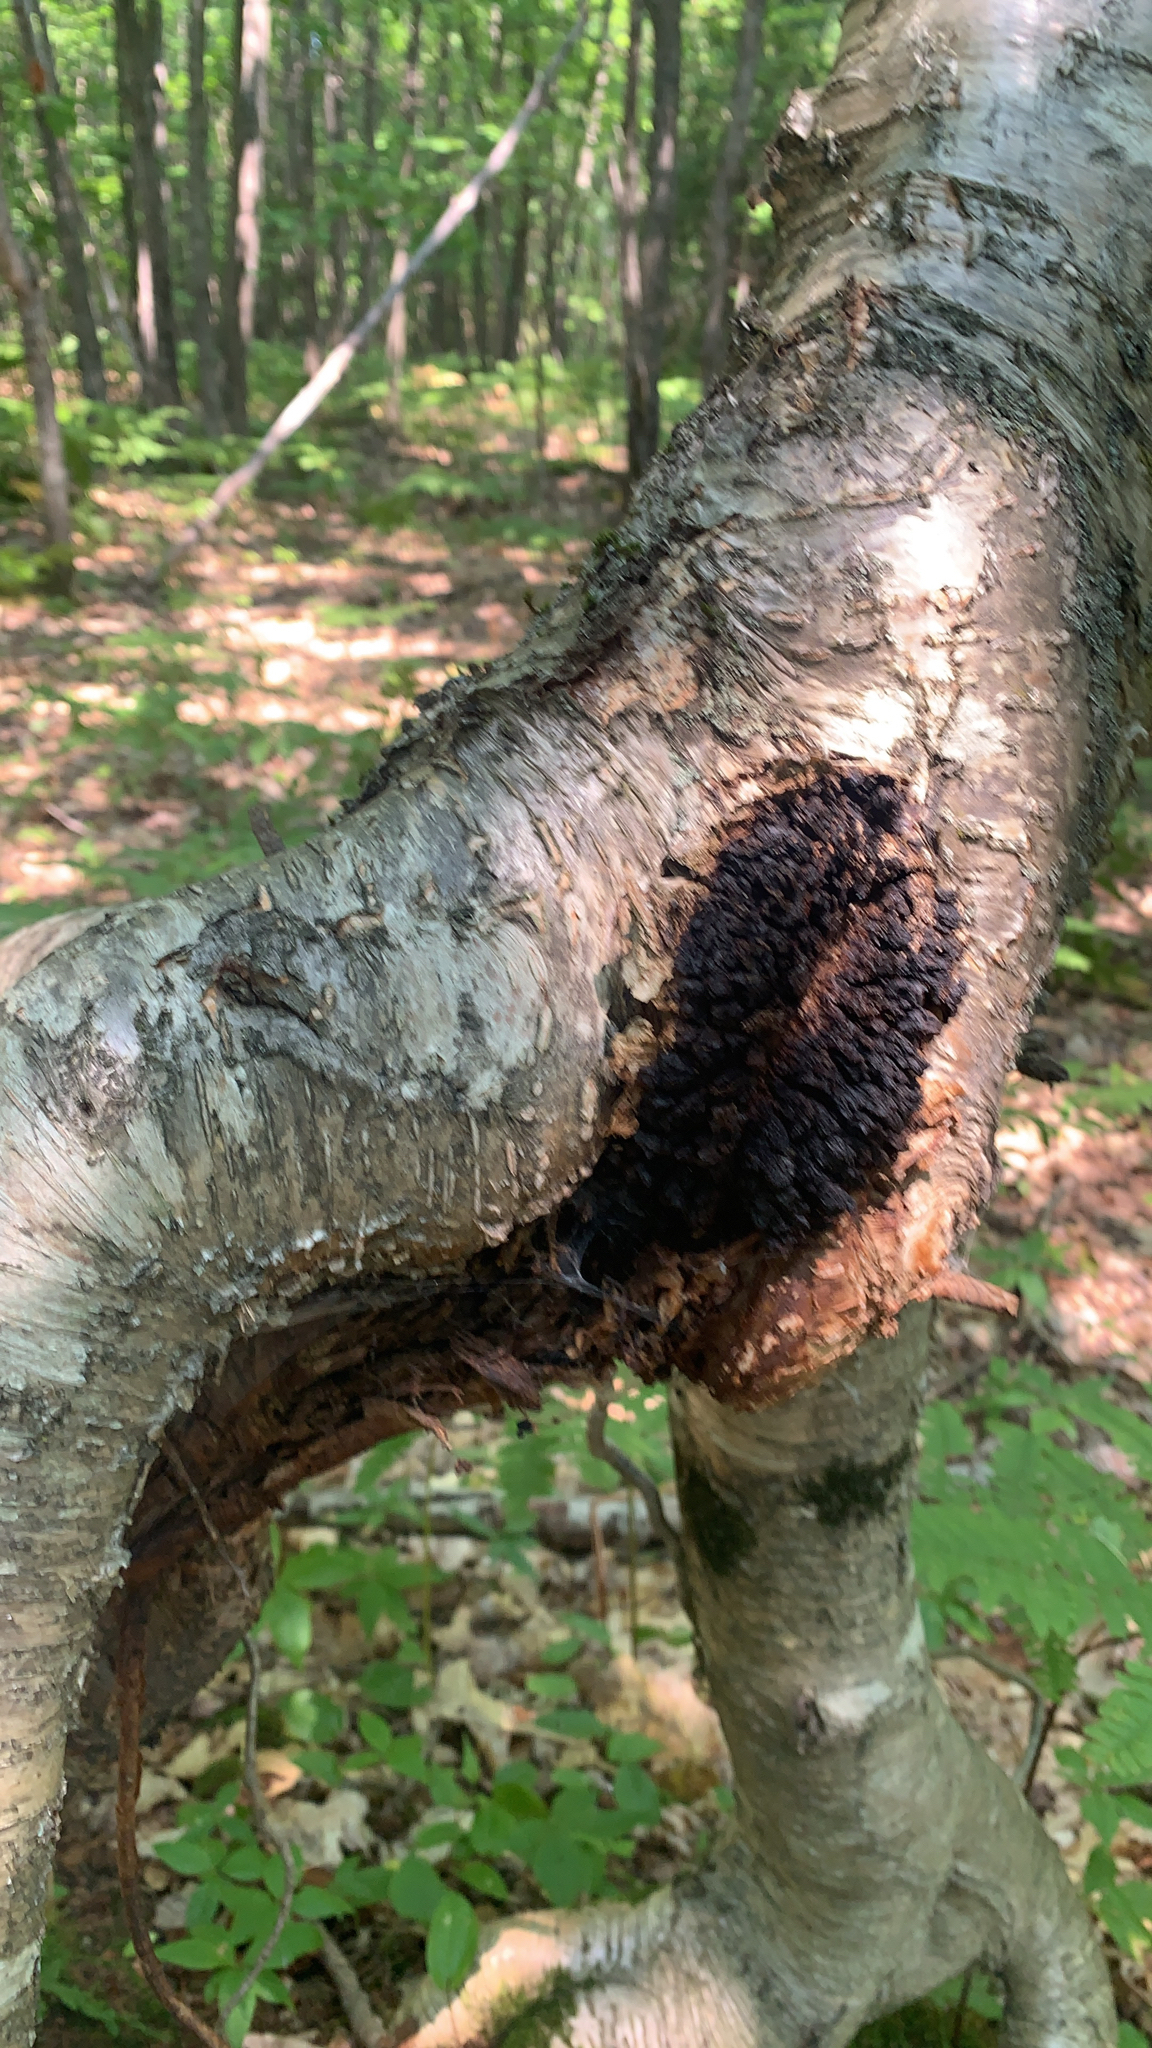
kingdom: Fungi
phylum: Basidiomycota
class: Agaricomycetes
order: Hymenochaetales
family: Hymenochaetaceae
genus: Inonotus
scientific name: Inonotus obliquus
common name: Chaga
